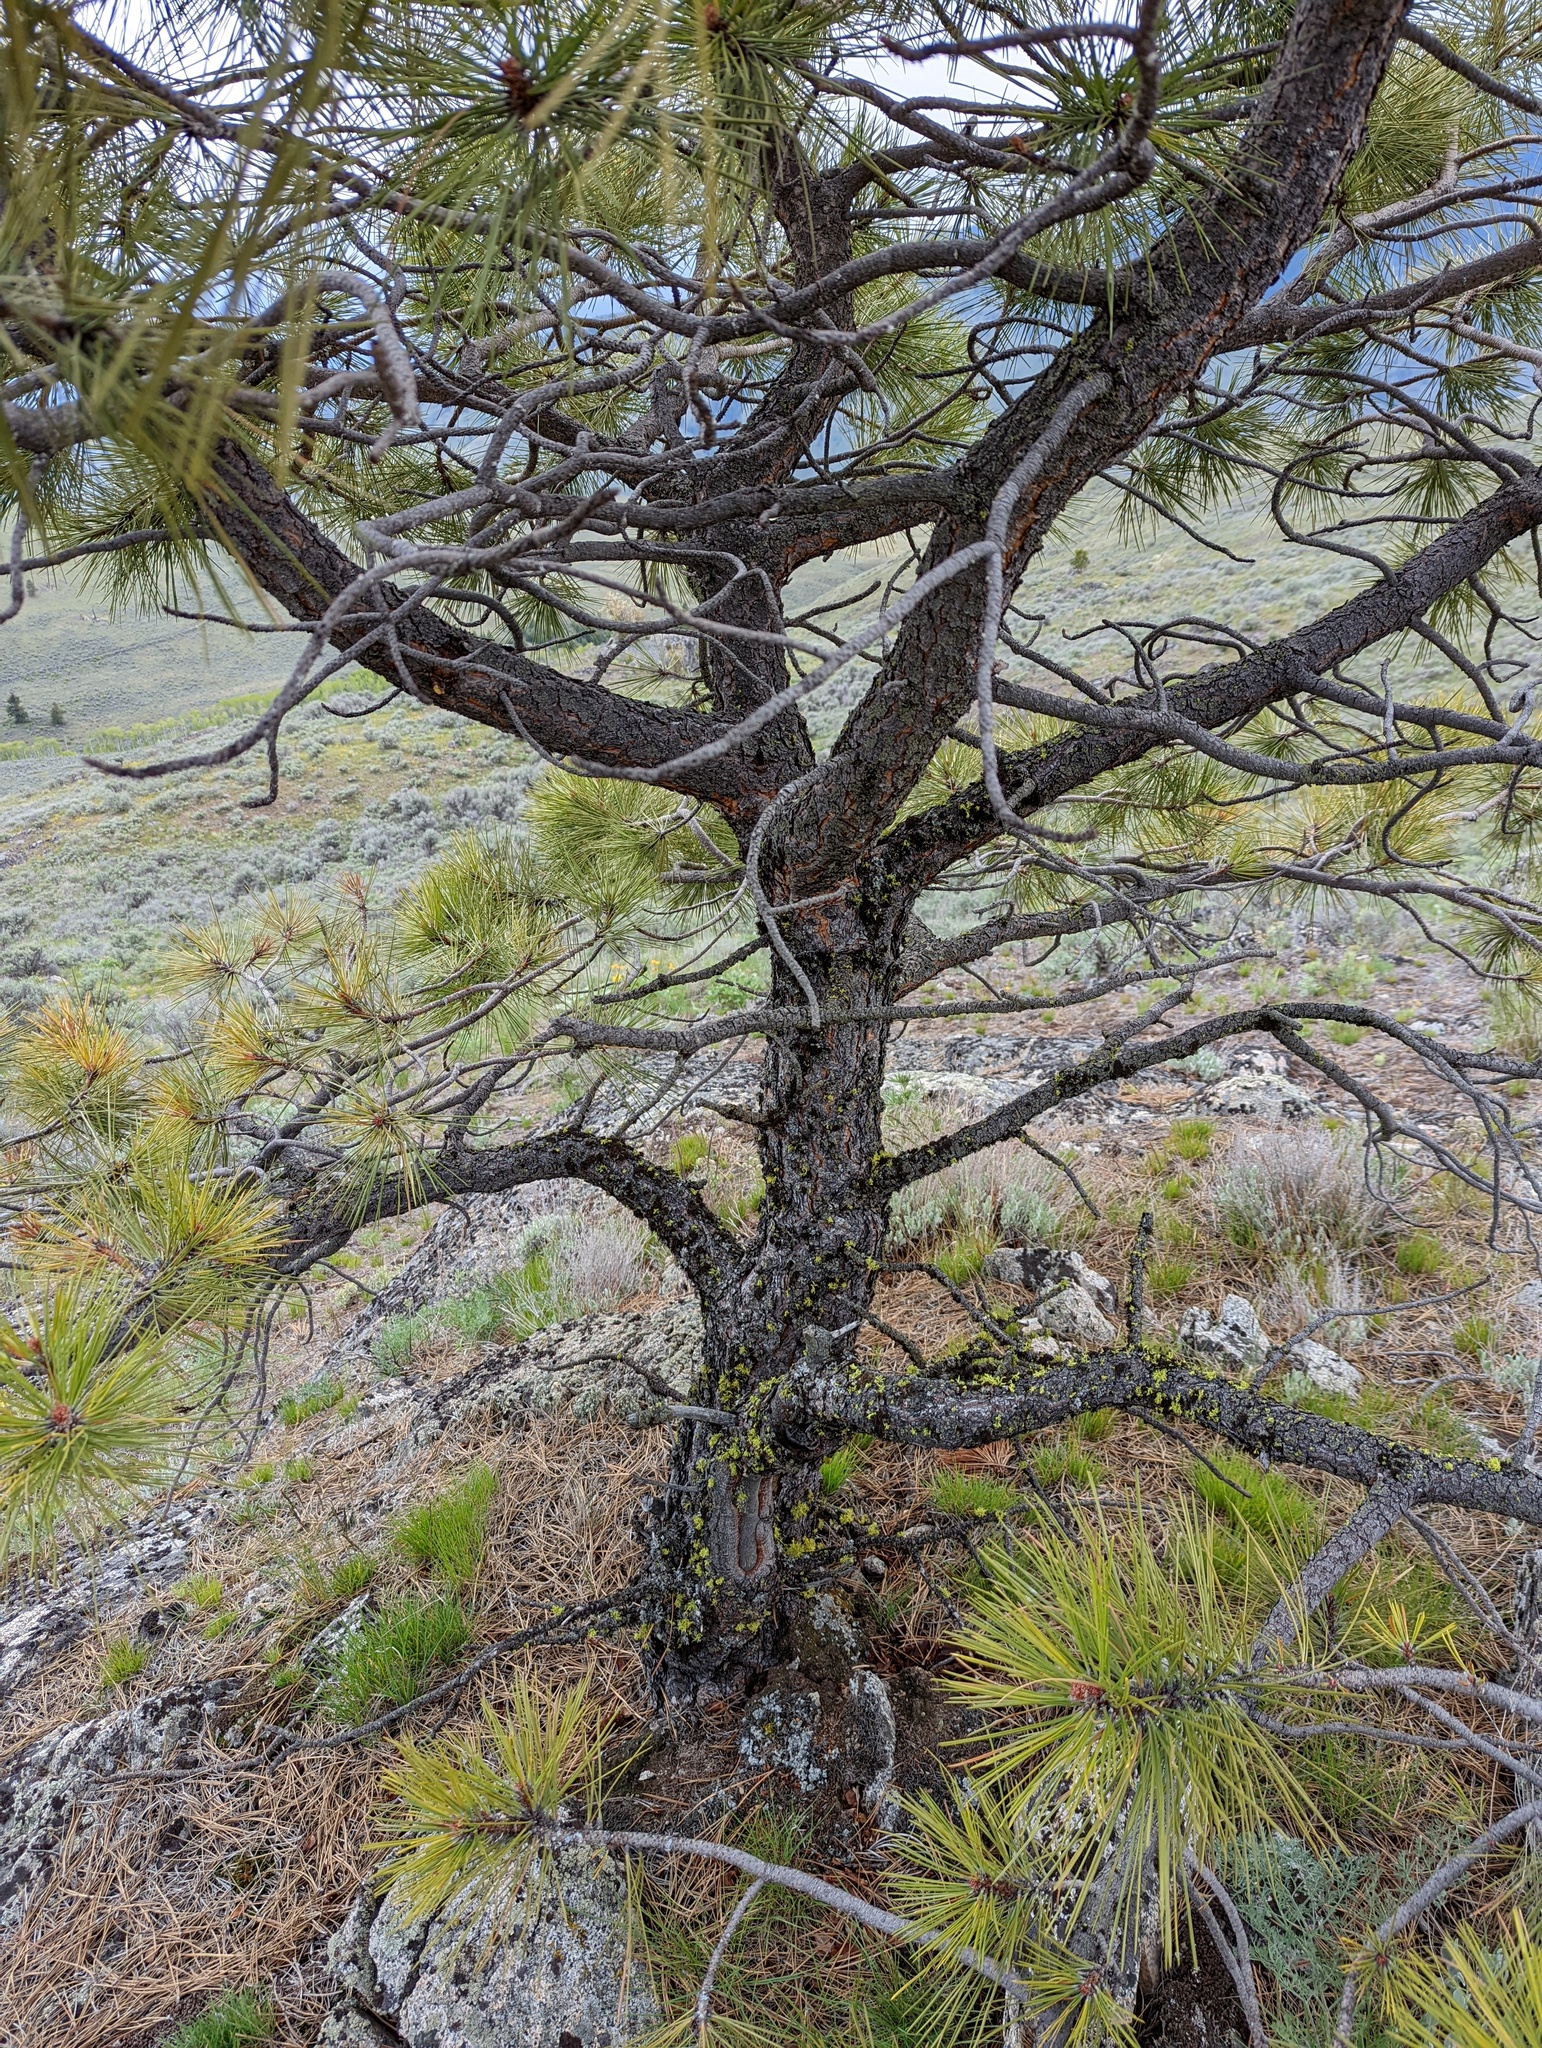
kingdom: Plantae
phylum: Tracheophyta
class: Pinopsida
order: Pinales
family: Pinaceae
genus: Pinus
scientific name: Pinus ponderosa
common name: Western yellow-pine
